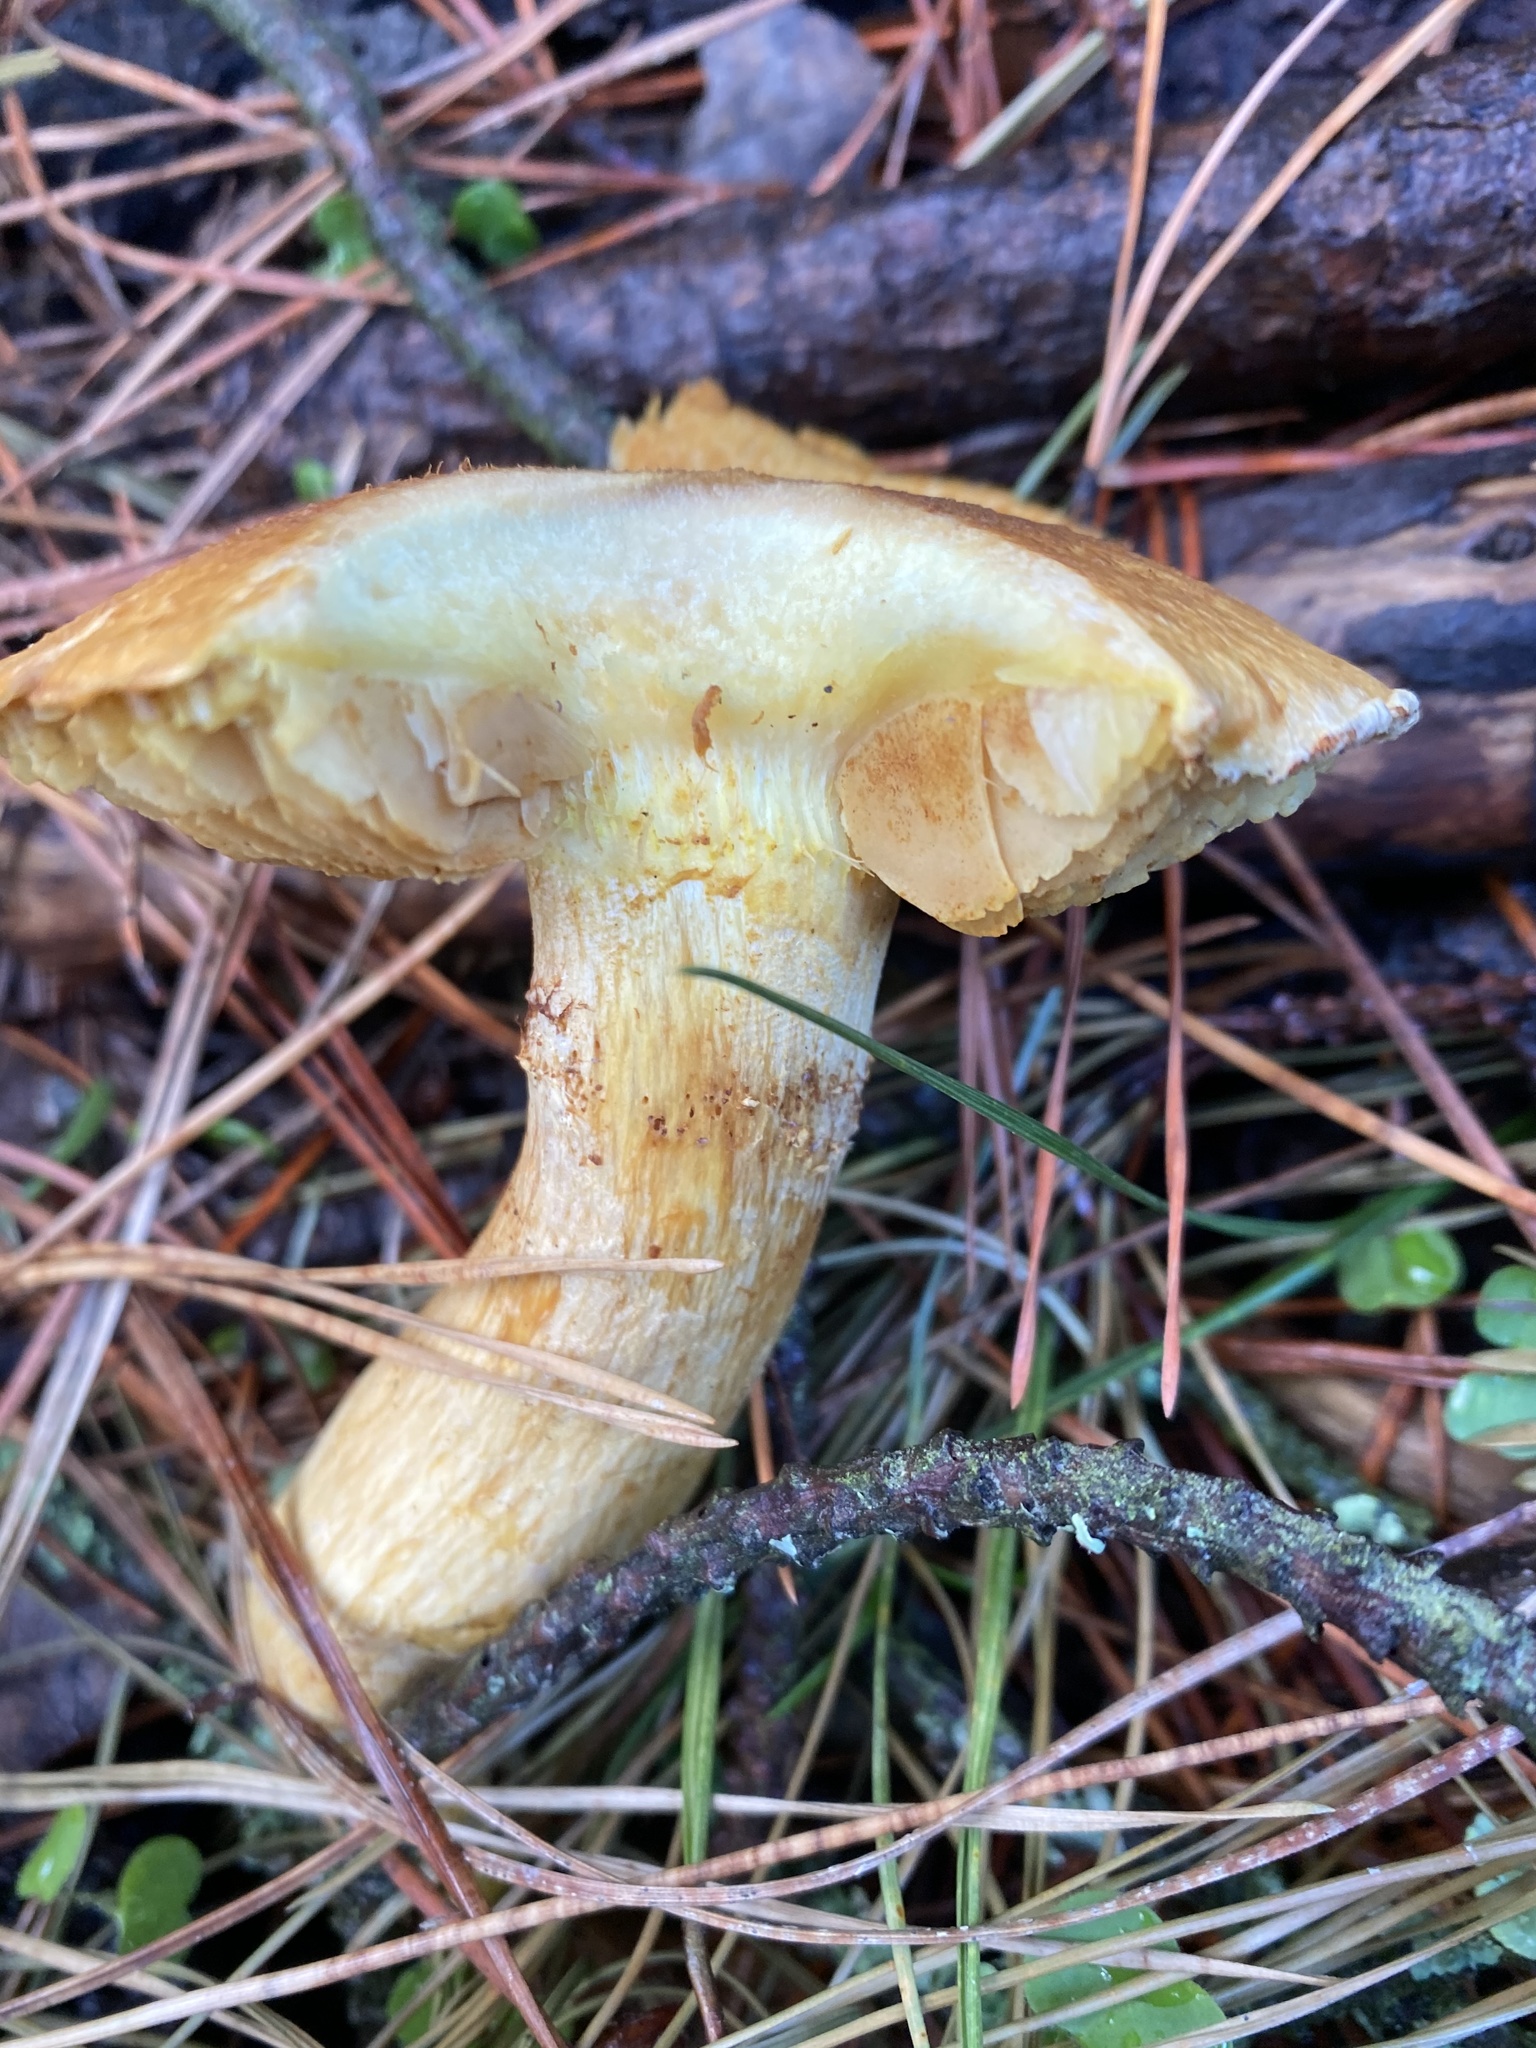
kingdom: Fungi
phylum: Basidiomycota
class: Agaricomycetes
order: Agaricales
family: Hymenogastraceae
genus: Gymnopilus
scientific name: Gymnopilus ventricosus
